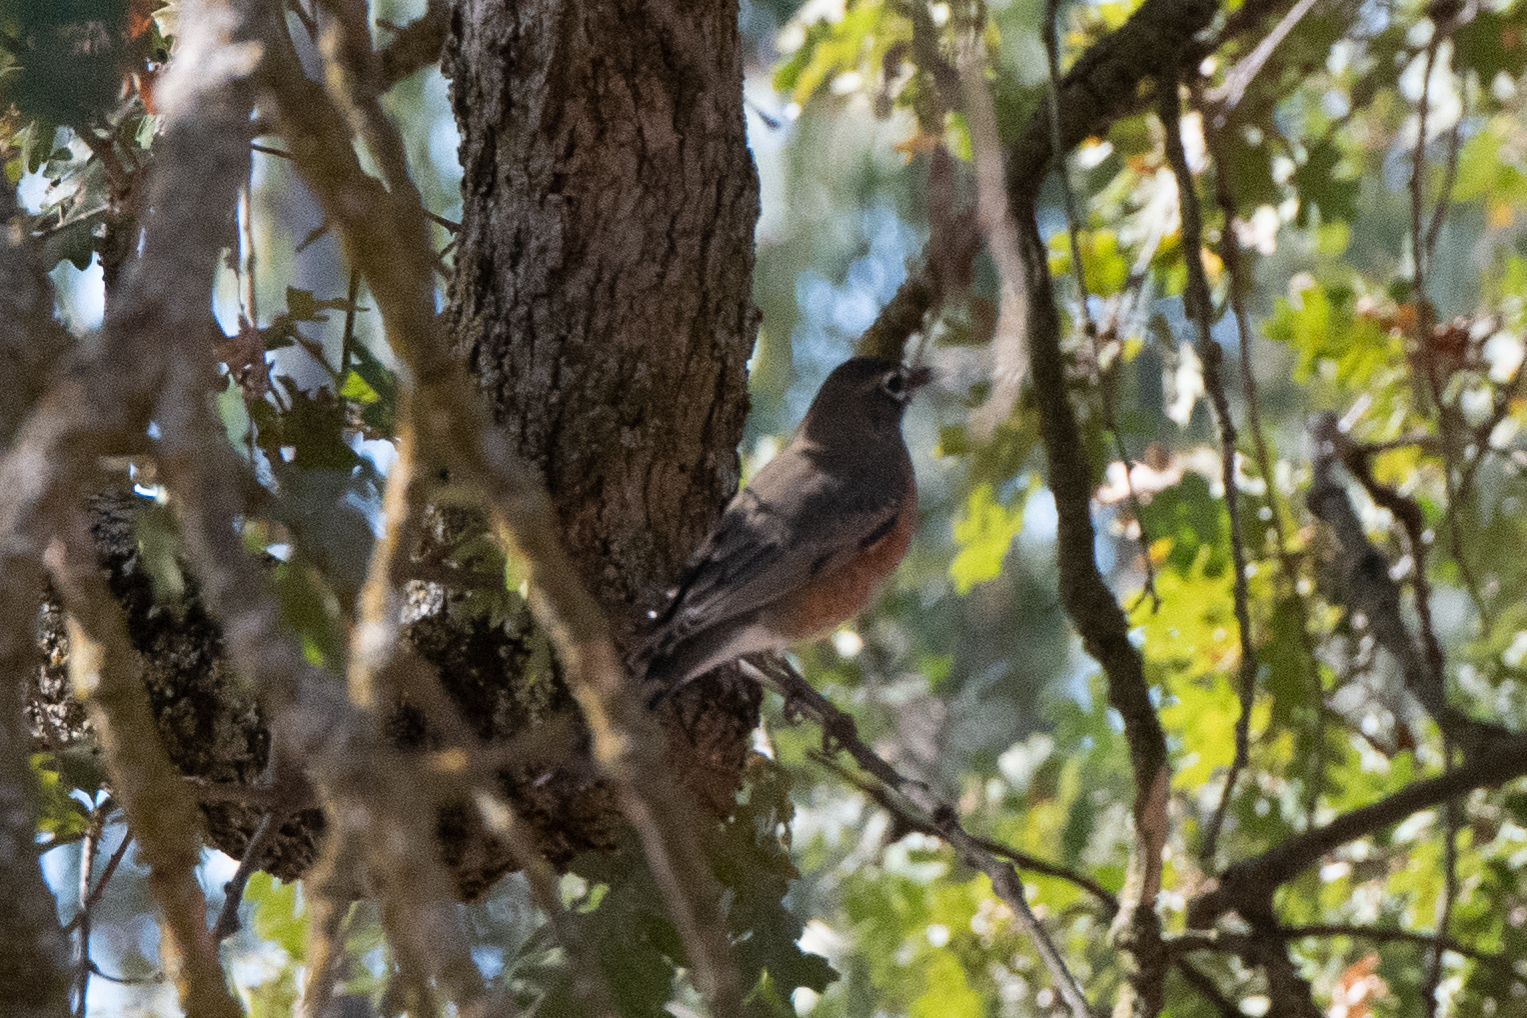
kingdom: Animalia
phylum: Chordata
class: Aves
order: Passeriformes
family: Turdidae
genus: Turdus
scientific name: Turdus migratorius
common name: American robin
